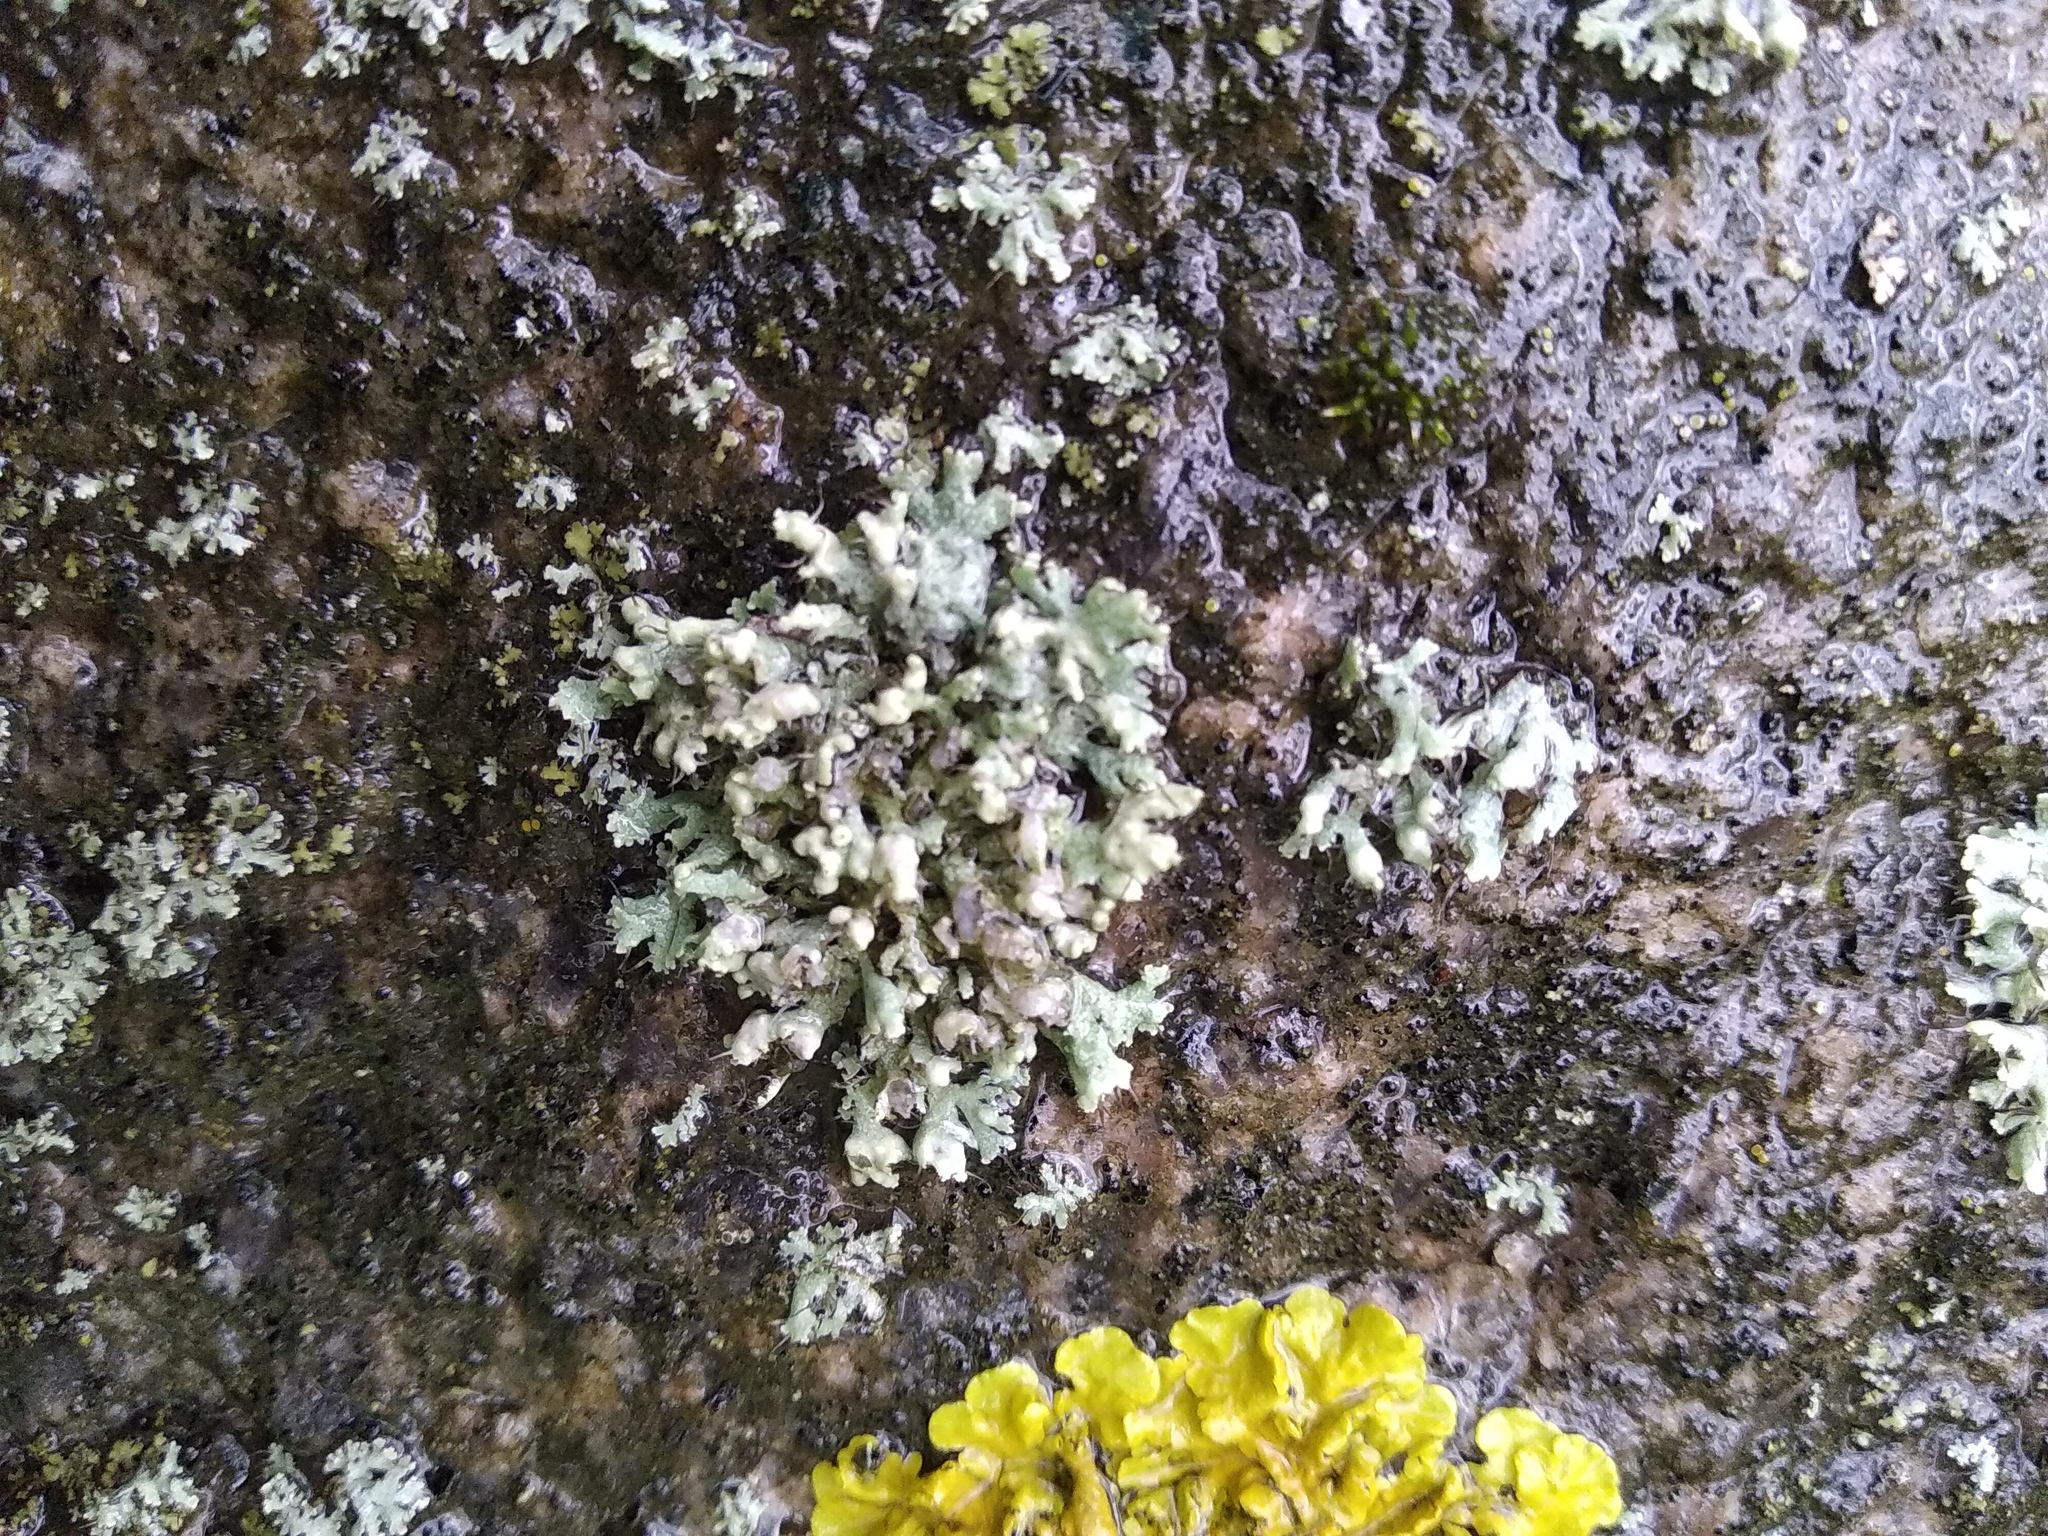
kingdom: Fungi
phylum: Ascomycota
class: Lecanoromycetes
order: Caliciales
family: Physciaceae
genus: Physcia
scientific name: Physcia adscendens
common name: Hooded rosette lichen
